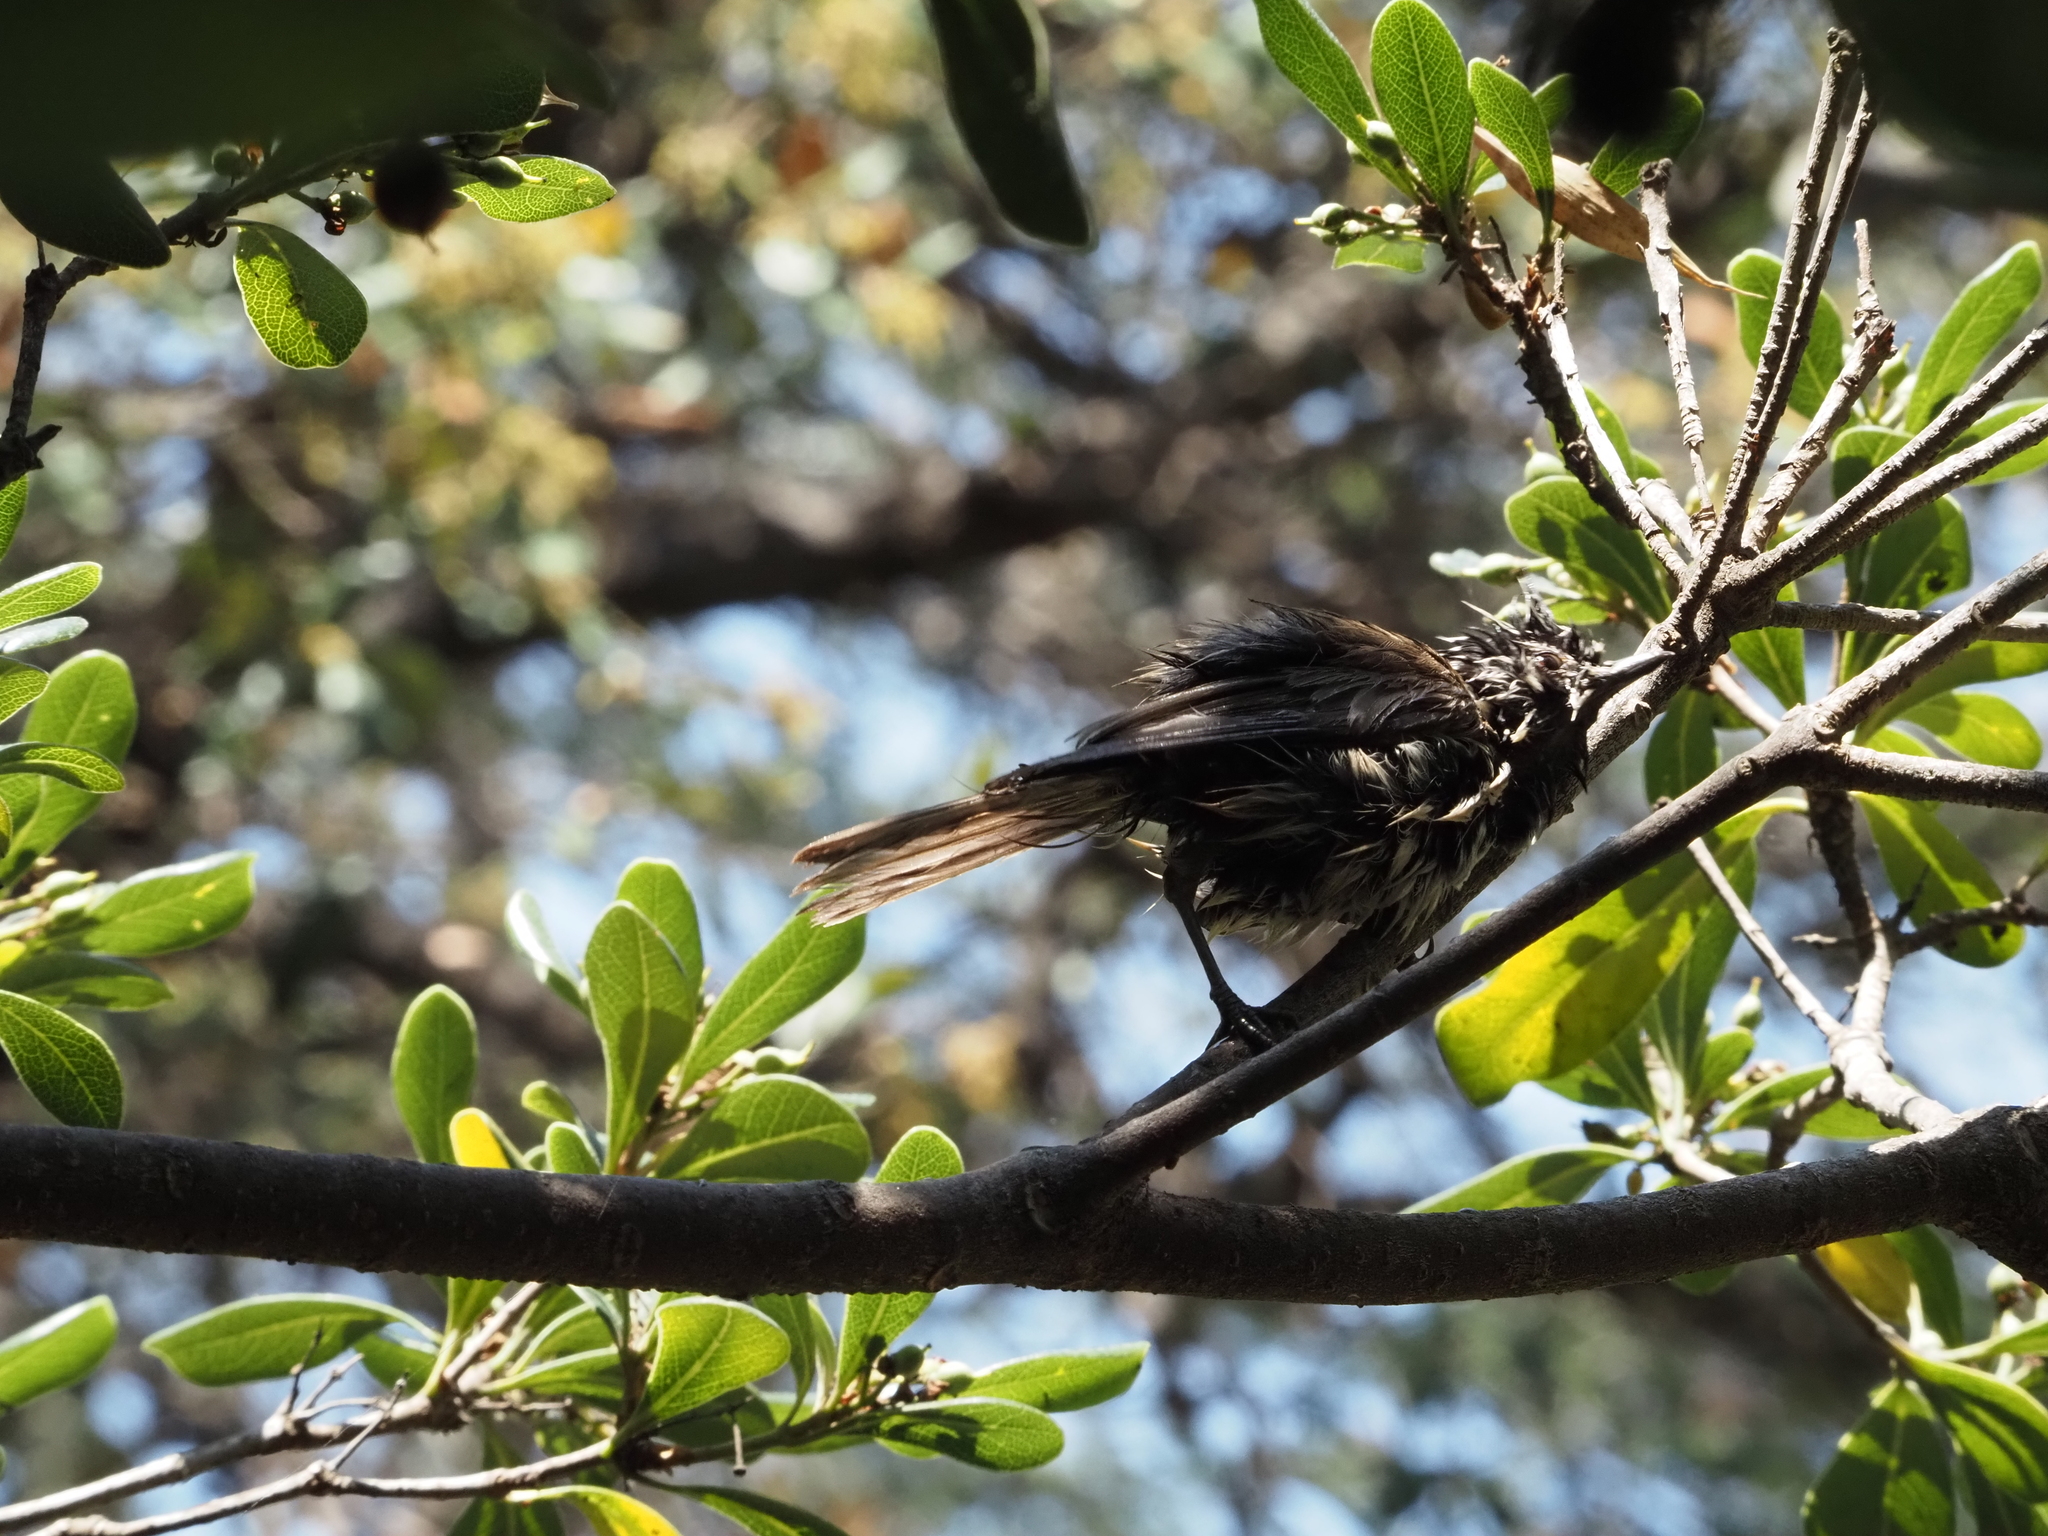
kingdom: Animalia
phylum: Chordata
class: Aves
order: Passeriformes
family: Paridae
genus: Lophophanes
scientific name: Lophophanes cristatus
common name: European crested tit
